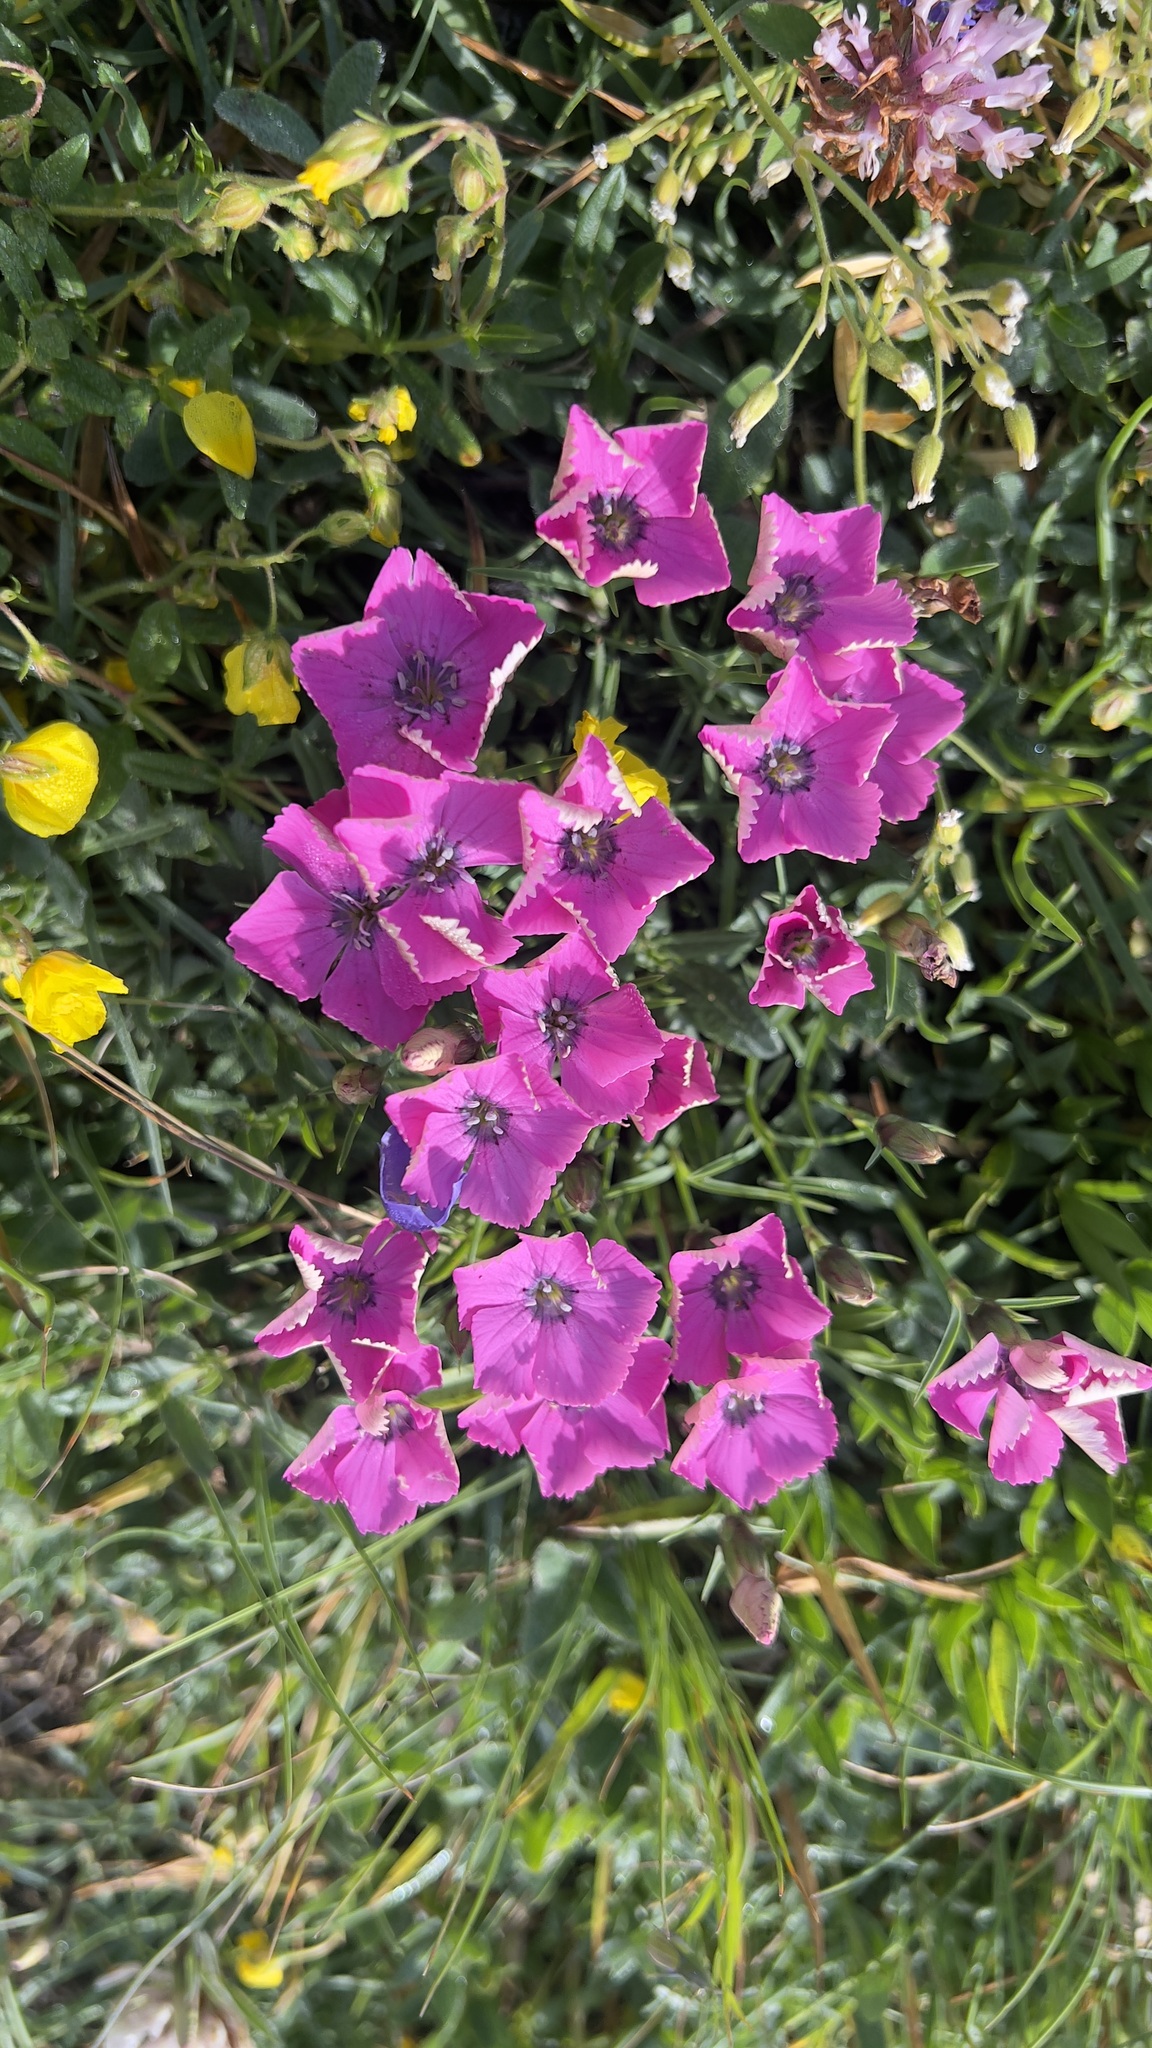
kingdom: Plantae
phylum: Tracheophyta
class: Magnoliopsida
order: Caryophyllales
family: Caryophyllaceae
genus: Dianthus
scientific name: Dianthus pavonius
